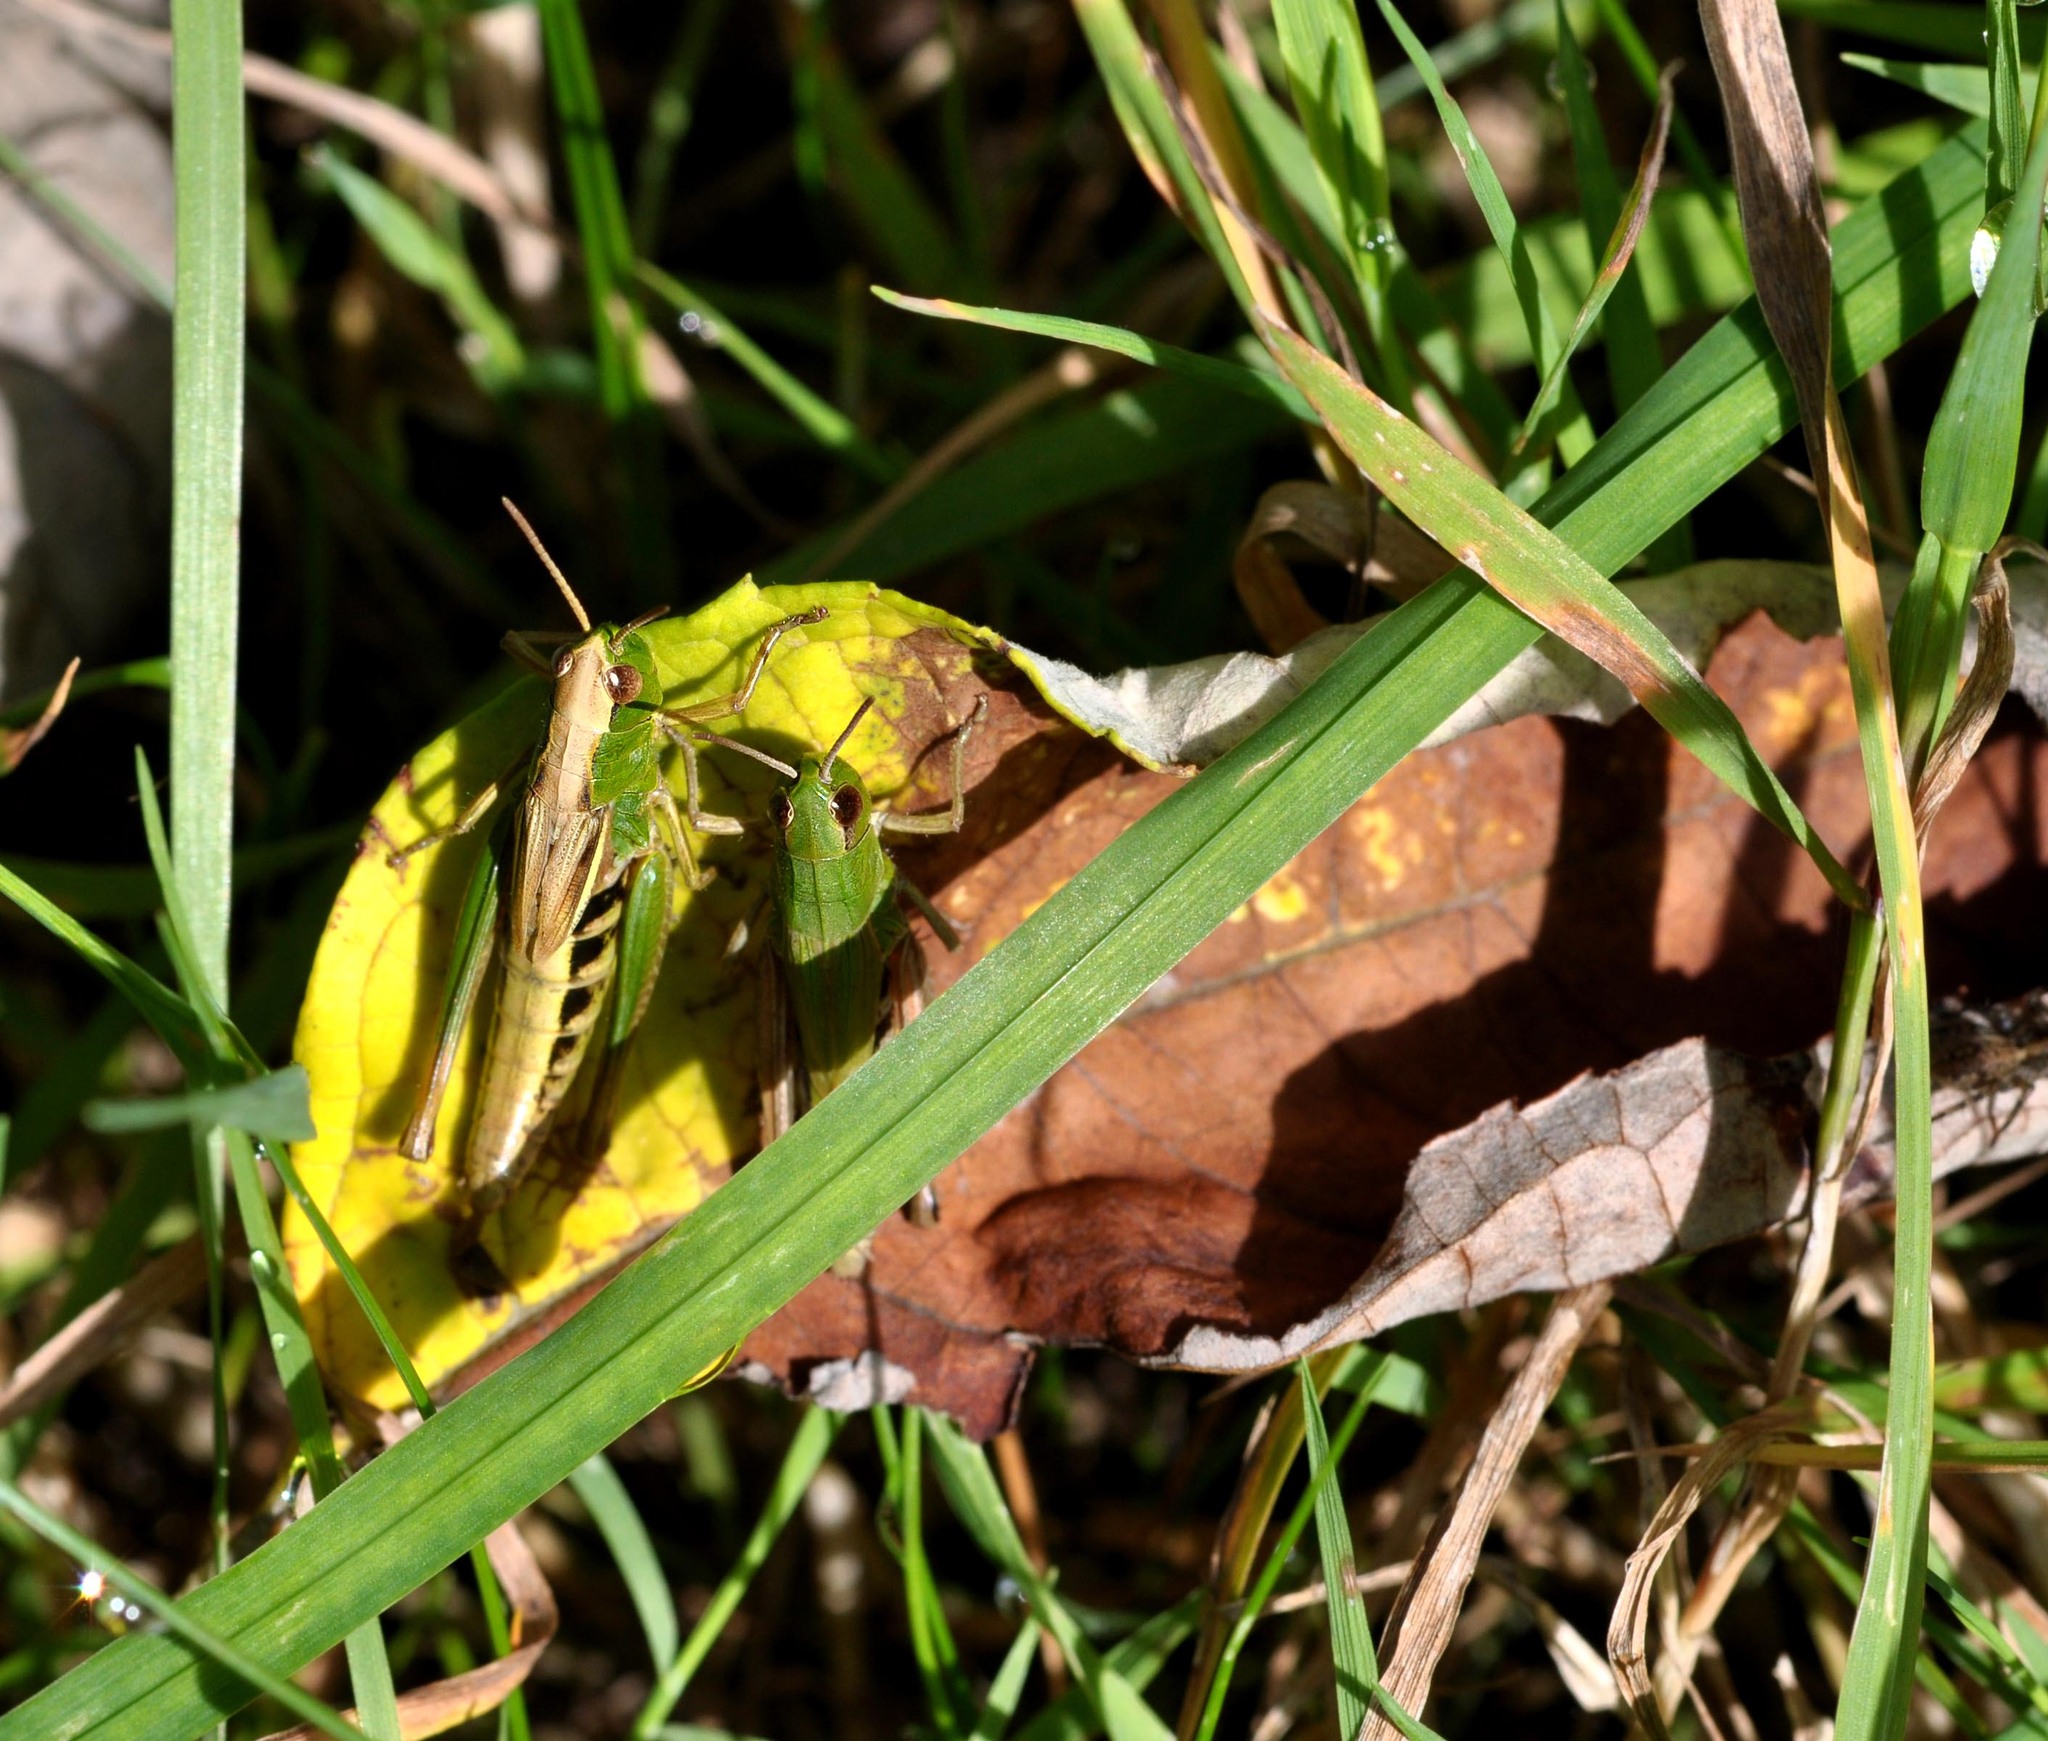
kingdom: Animalia
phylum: Arthropoda
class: Insecta
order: Orthoptera
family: Acrididae
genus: Pseudochorthippus
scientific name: Pseudochorthippus parallelus
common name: Meadow grasshopper
